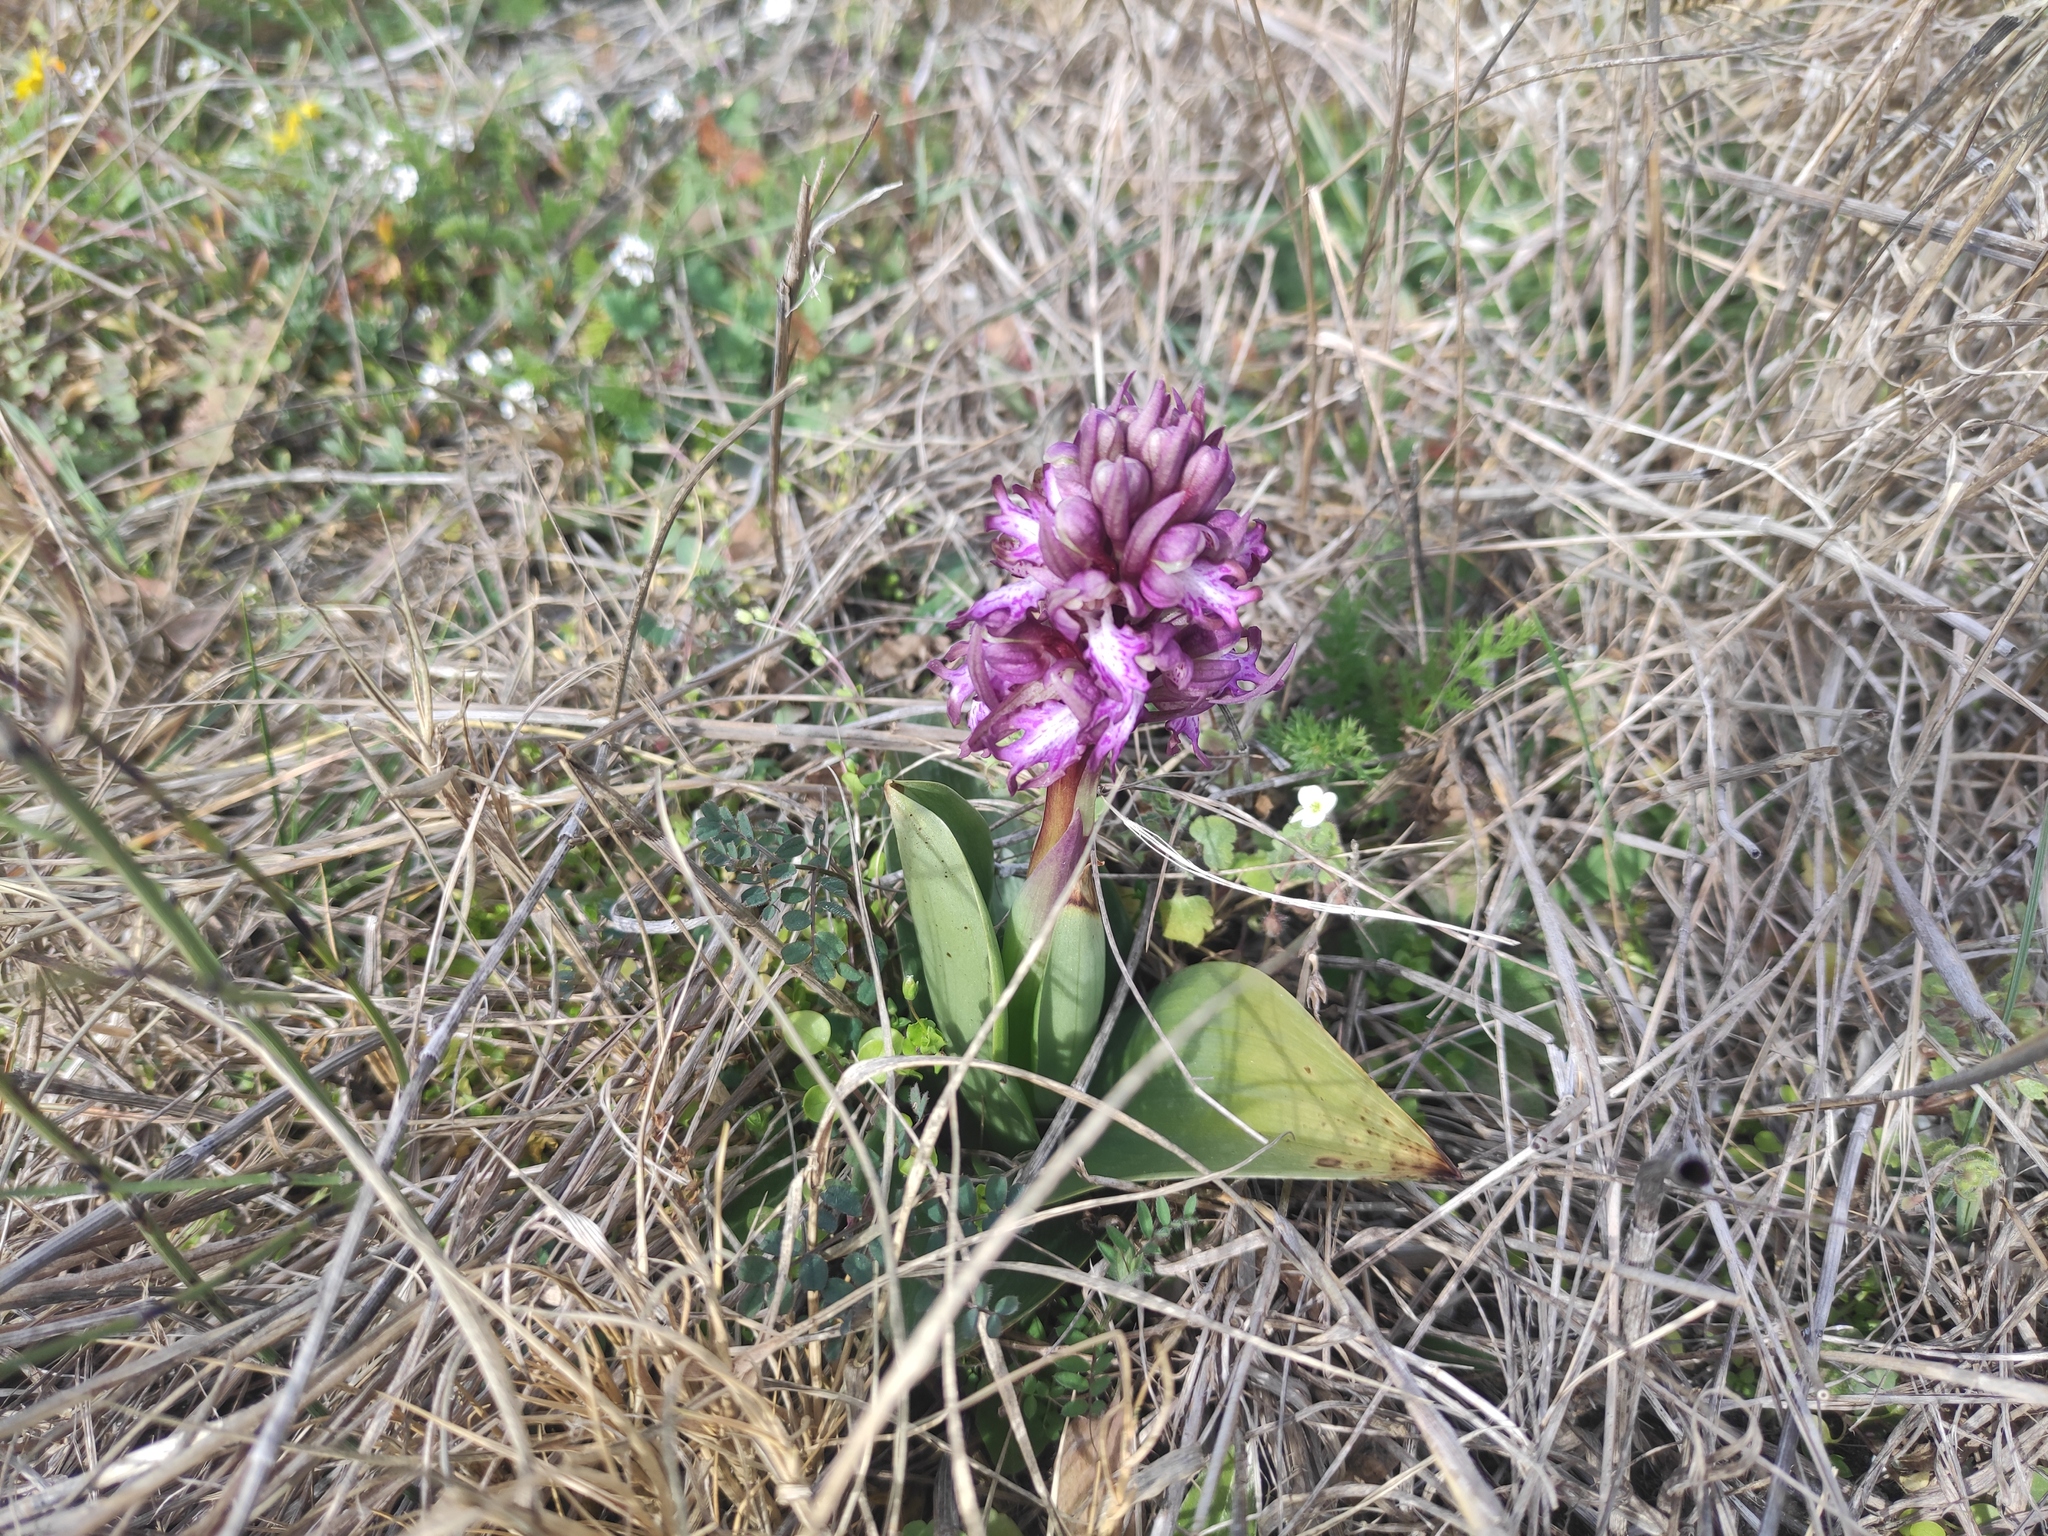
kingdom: Plantae
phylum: Tracheophyta
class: Liliopsida
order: Asparagales
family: Orchidaceae
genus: Himantoglossum
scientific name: Himantoglossum robertianum
